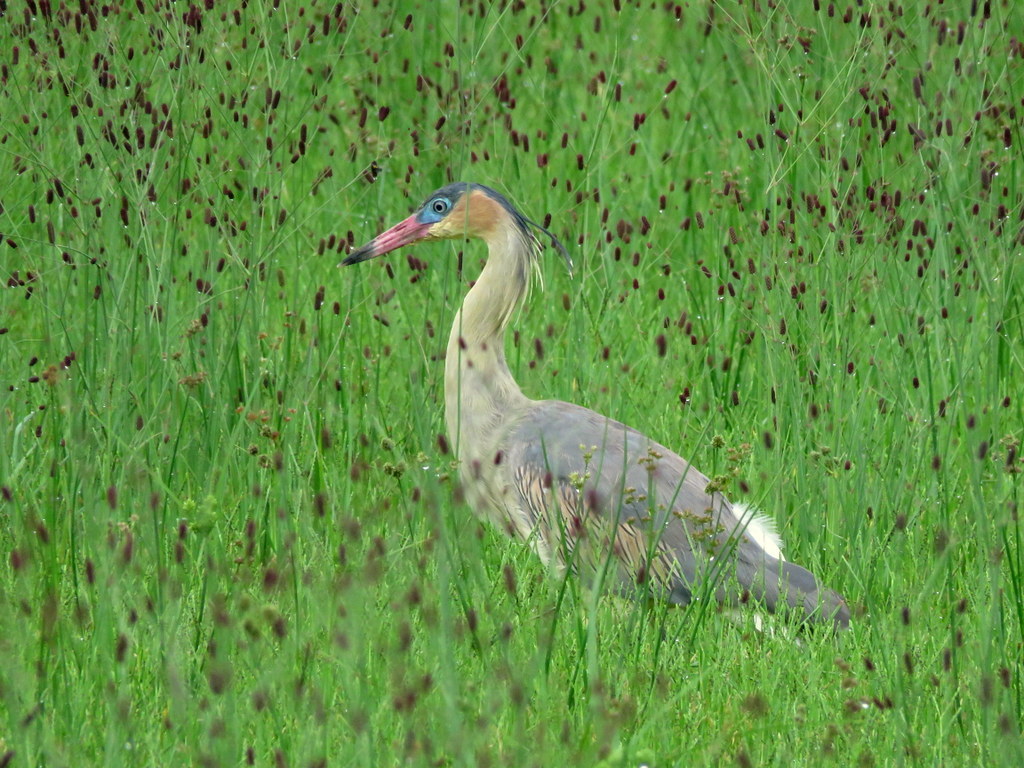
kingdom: Animalia
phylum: Chordata
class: Aves
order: Pelecaniformes
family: Ardeidae
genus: Syrigma
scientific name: Syrigma sibilatrix
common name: Whistling heron
